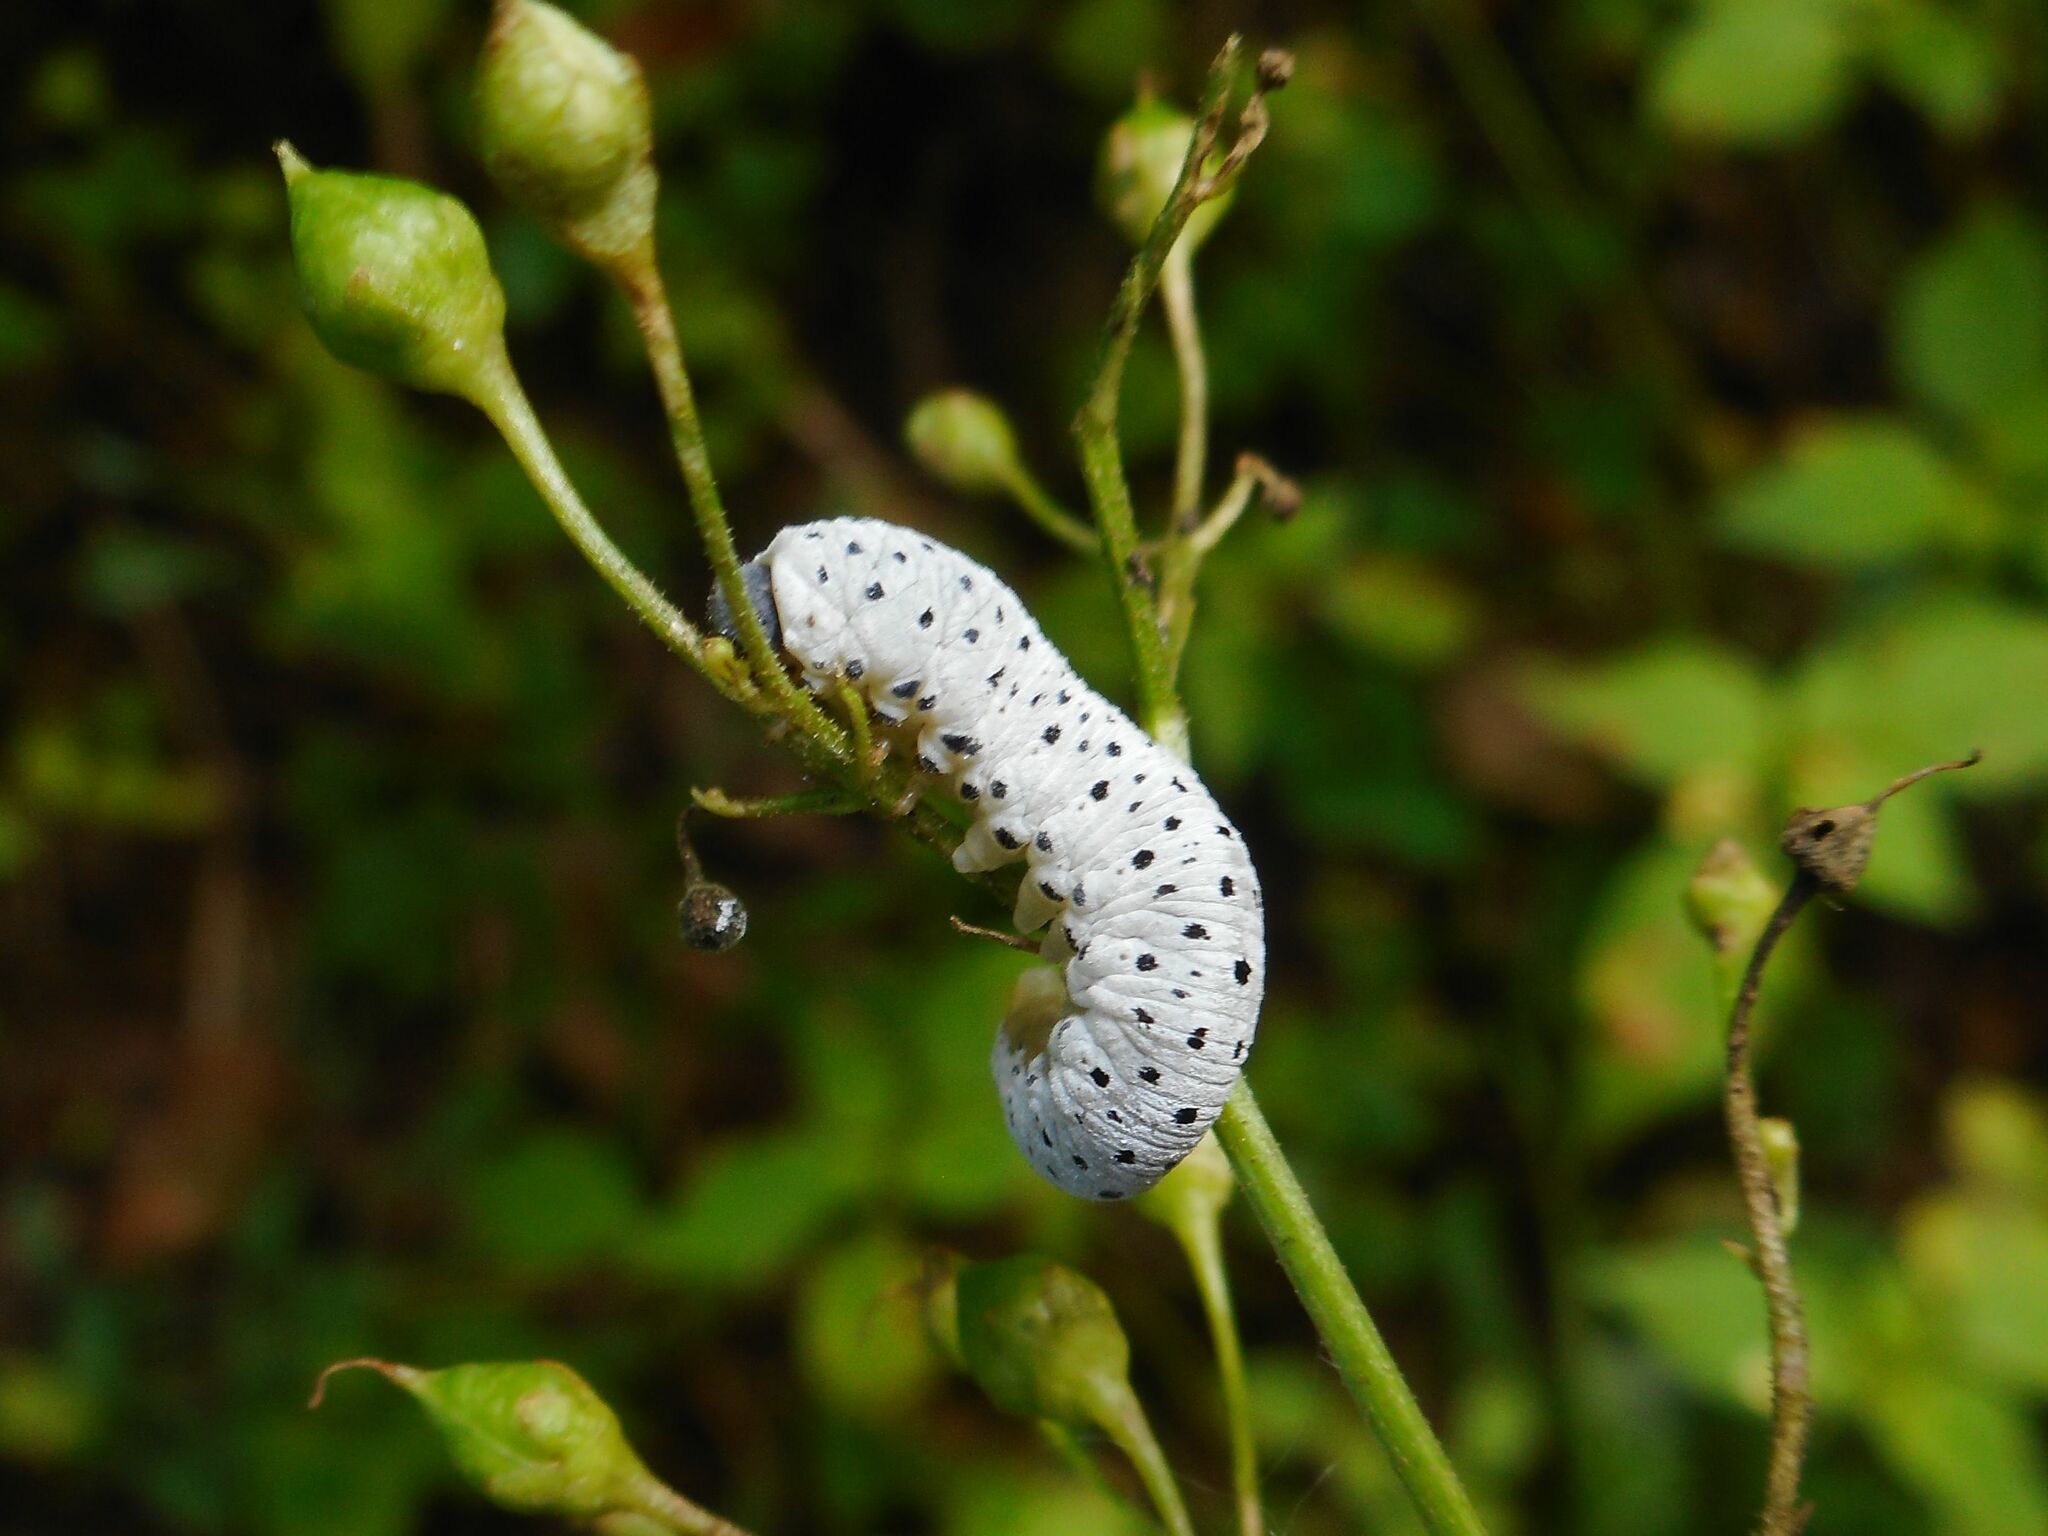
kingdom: Animalia
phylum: Arthropoda
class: Insecta
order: Hymenoptera
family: Tenthredinidae
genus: Tenthredo
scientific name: Tenthredo scrophulariae
